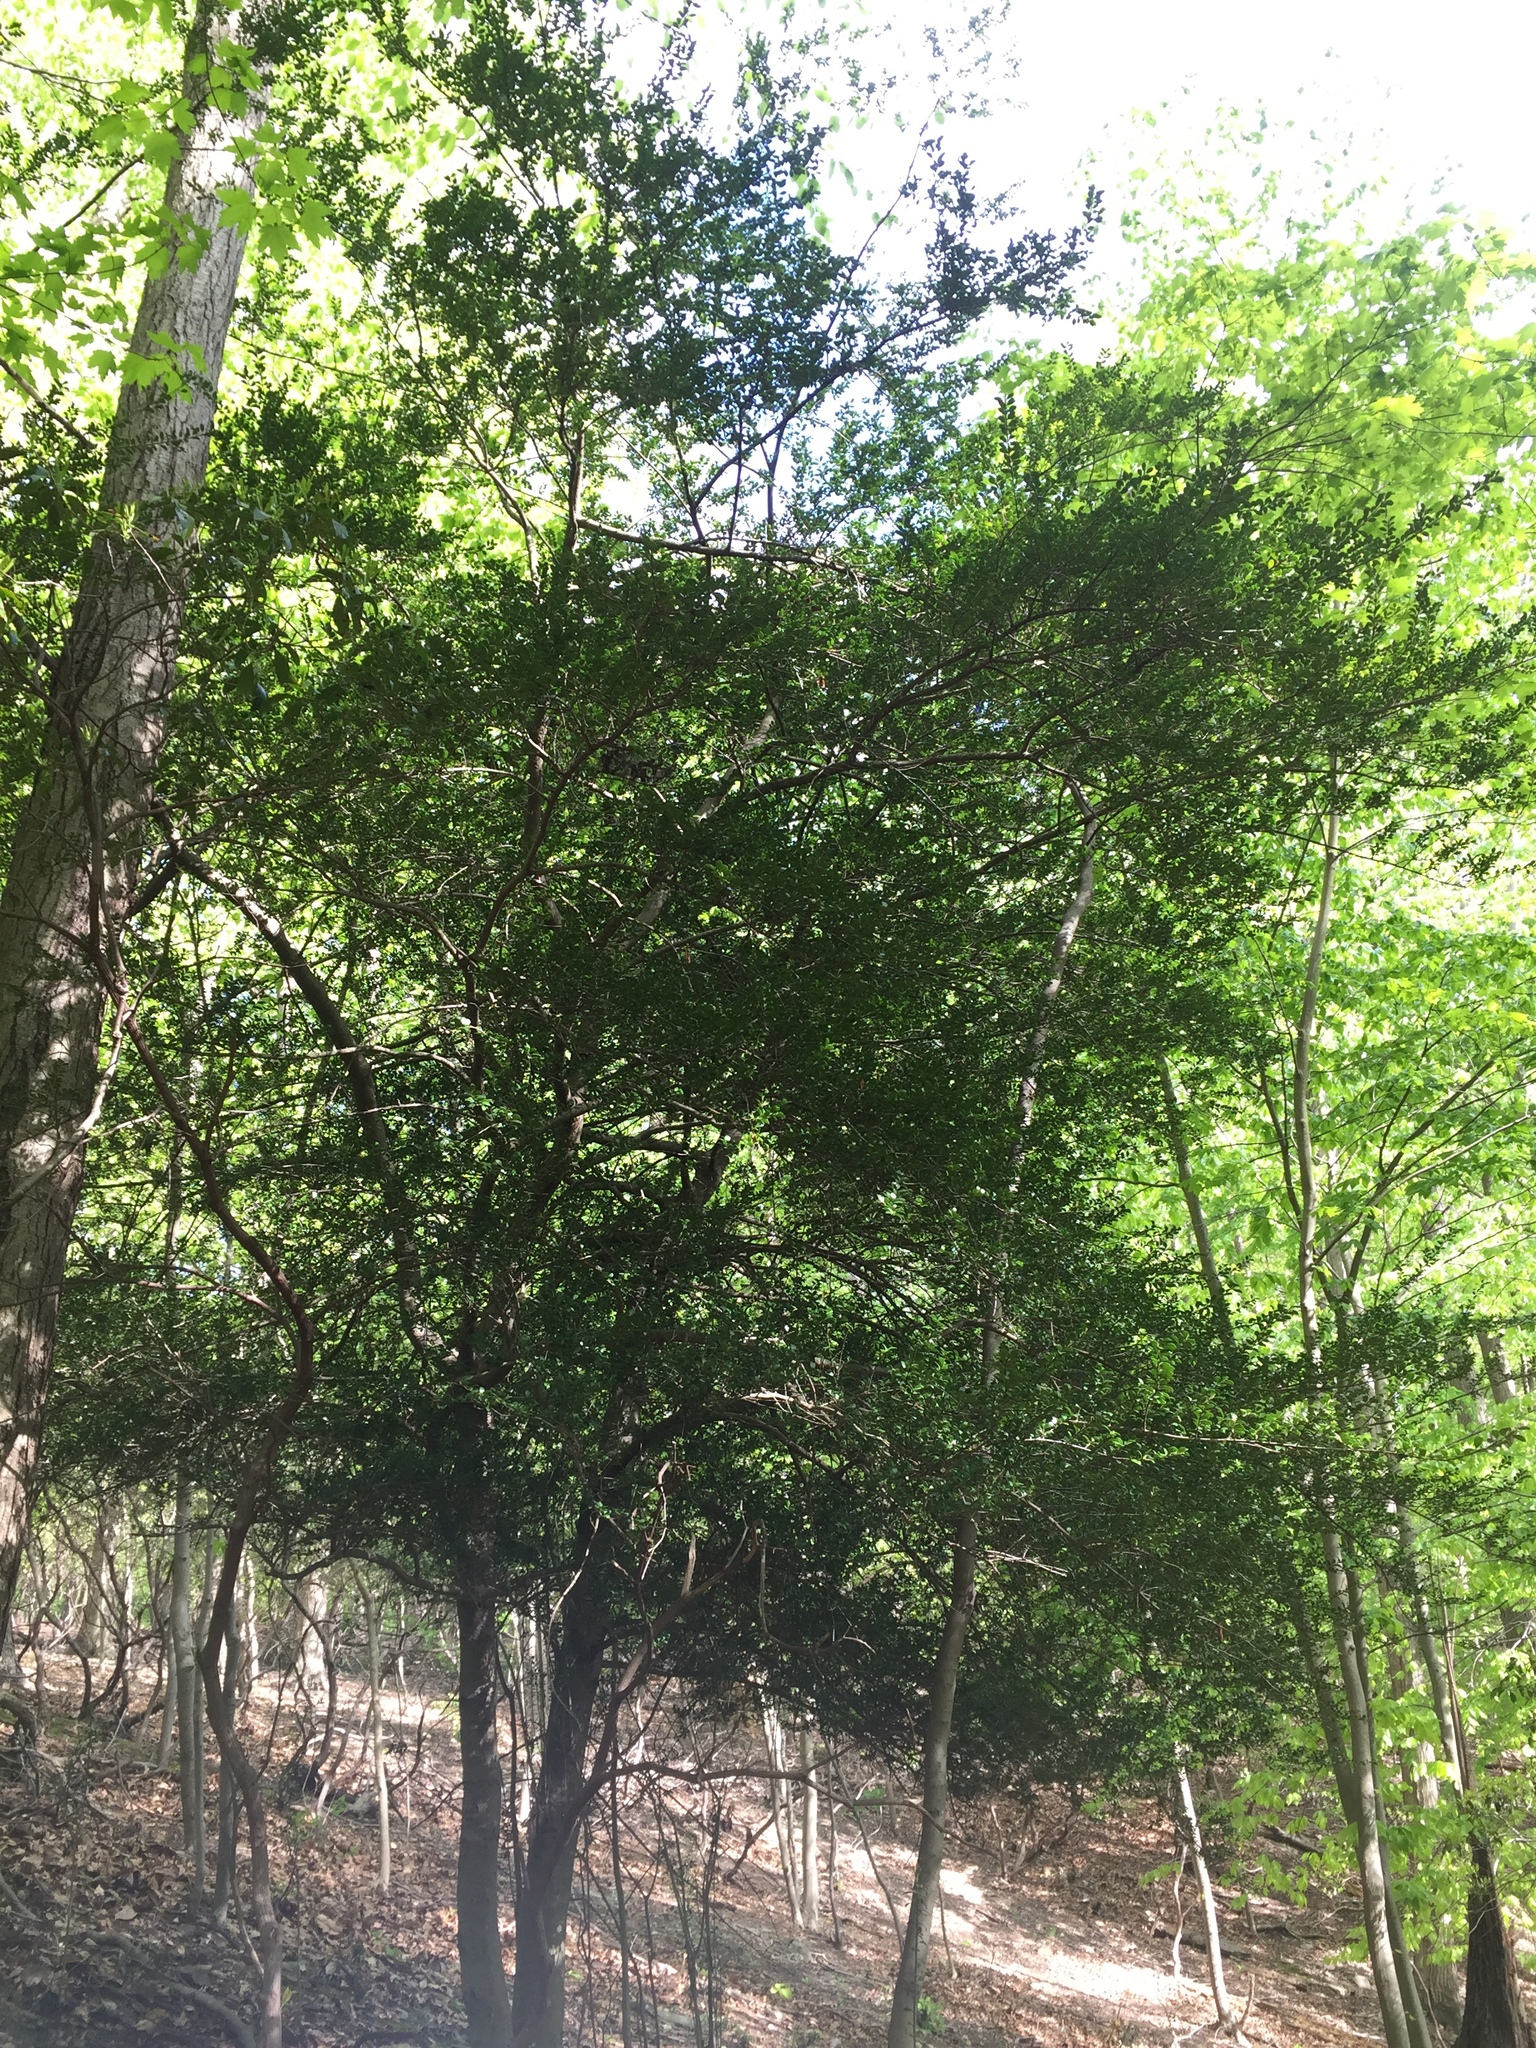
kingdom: Plantae
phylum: Tracheophyta
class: Magnoliopsida
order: Aquifoliales
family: Aquifoliaceae
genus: Ilex
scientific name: Ilex crenata
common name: Japanese holly
